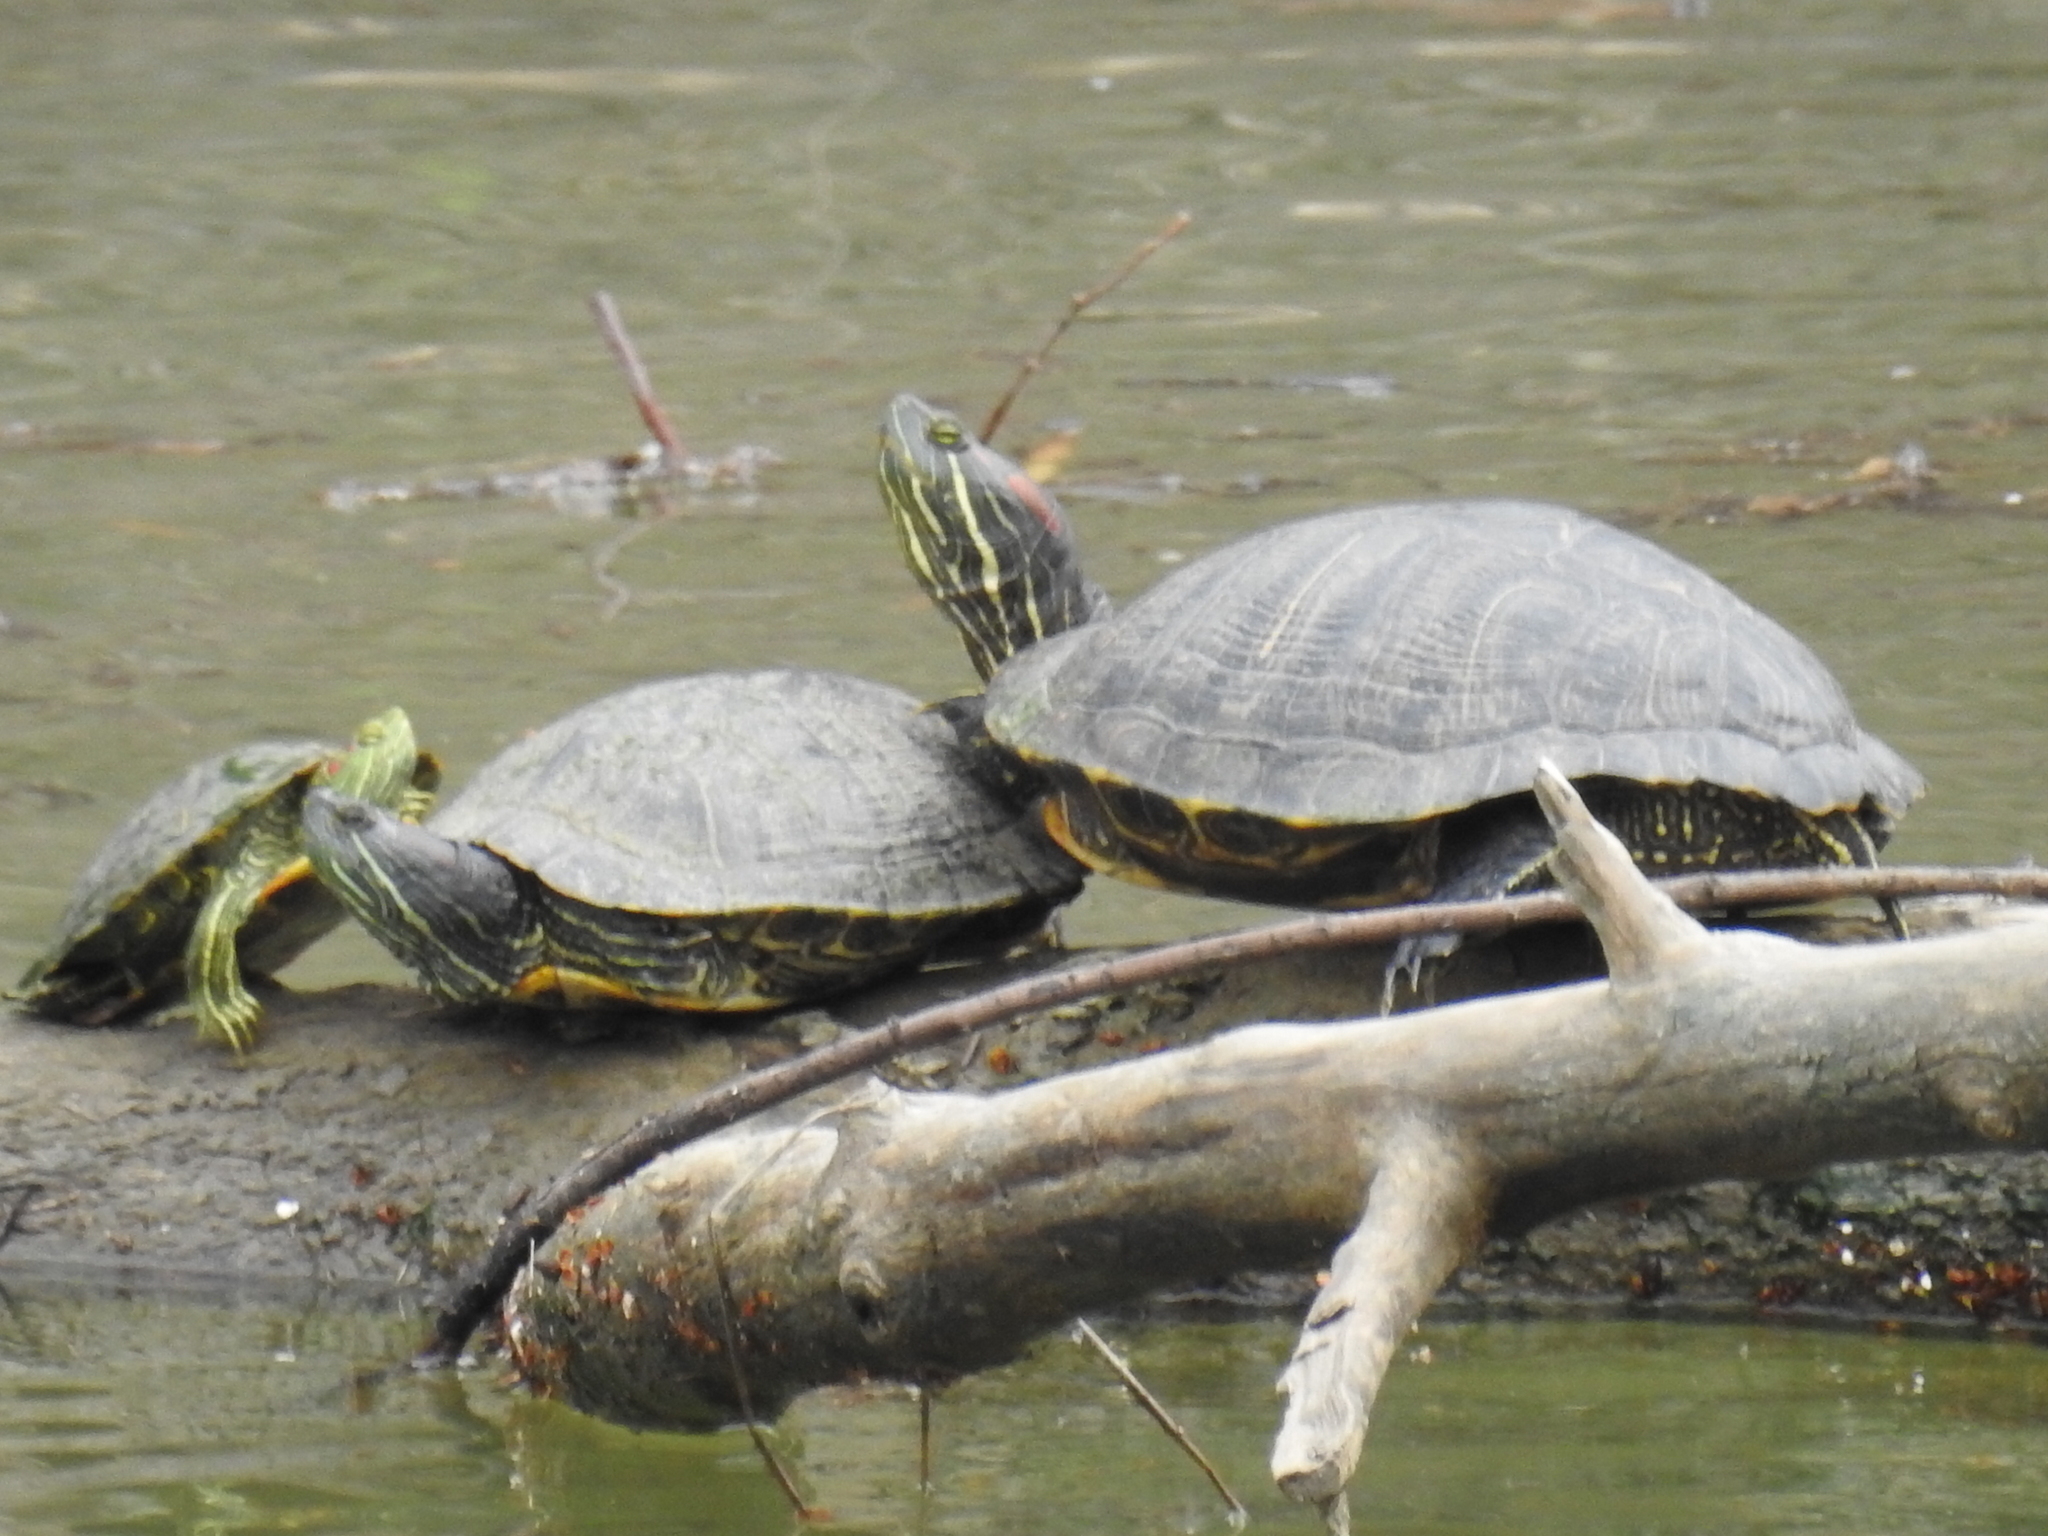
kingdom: Animalia
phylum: Chordata
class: Testudines
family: Emydidae
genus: Trachemys
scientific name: Trachemys scripta
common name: Slider
